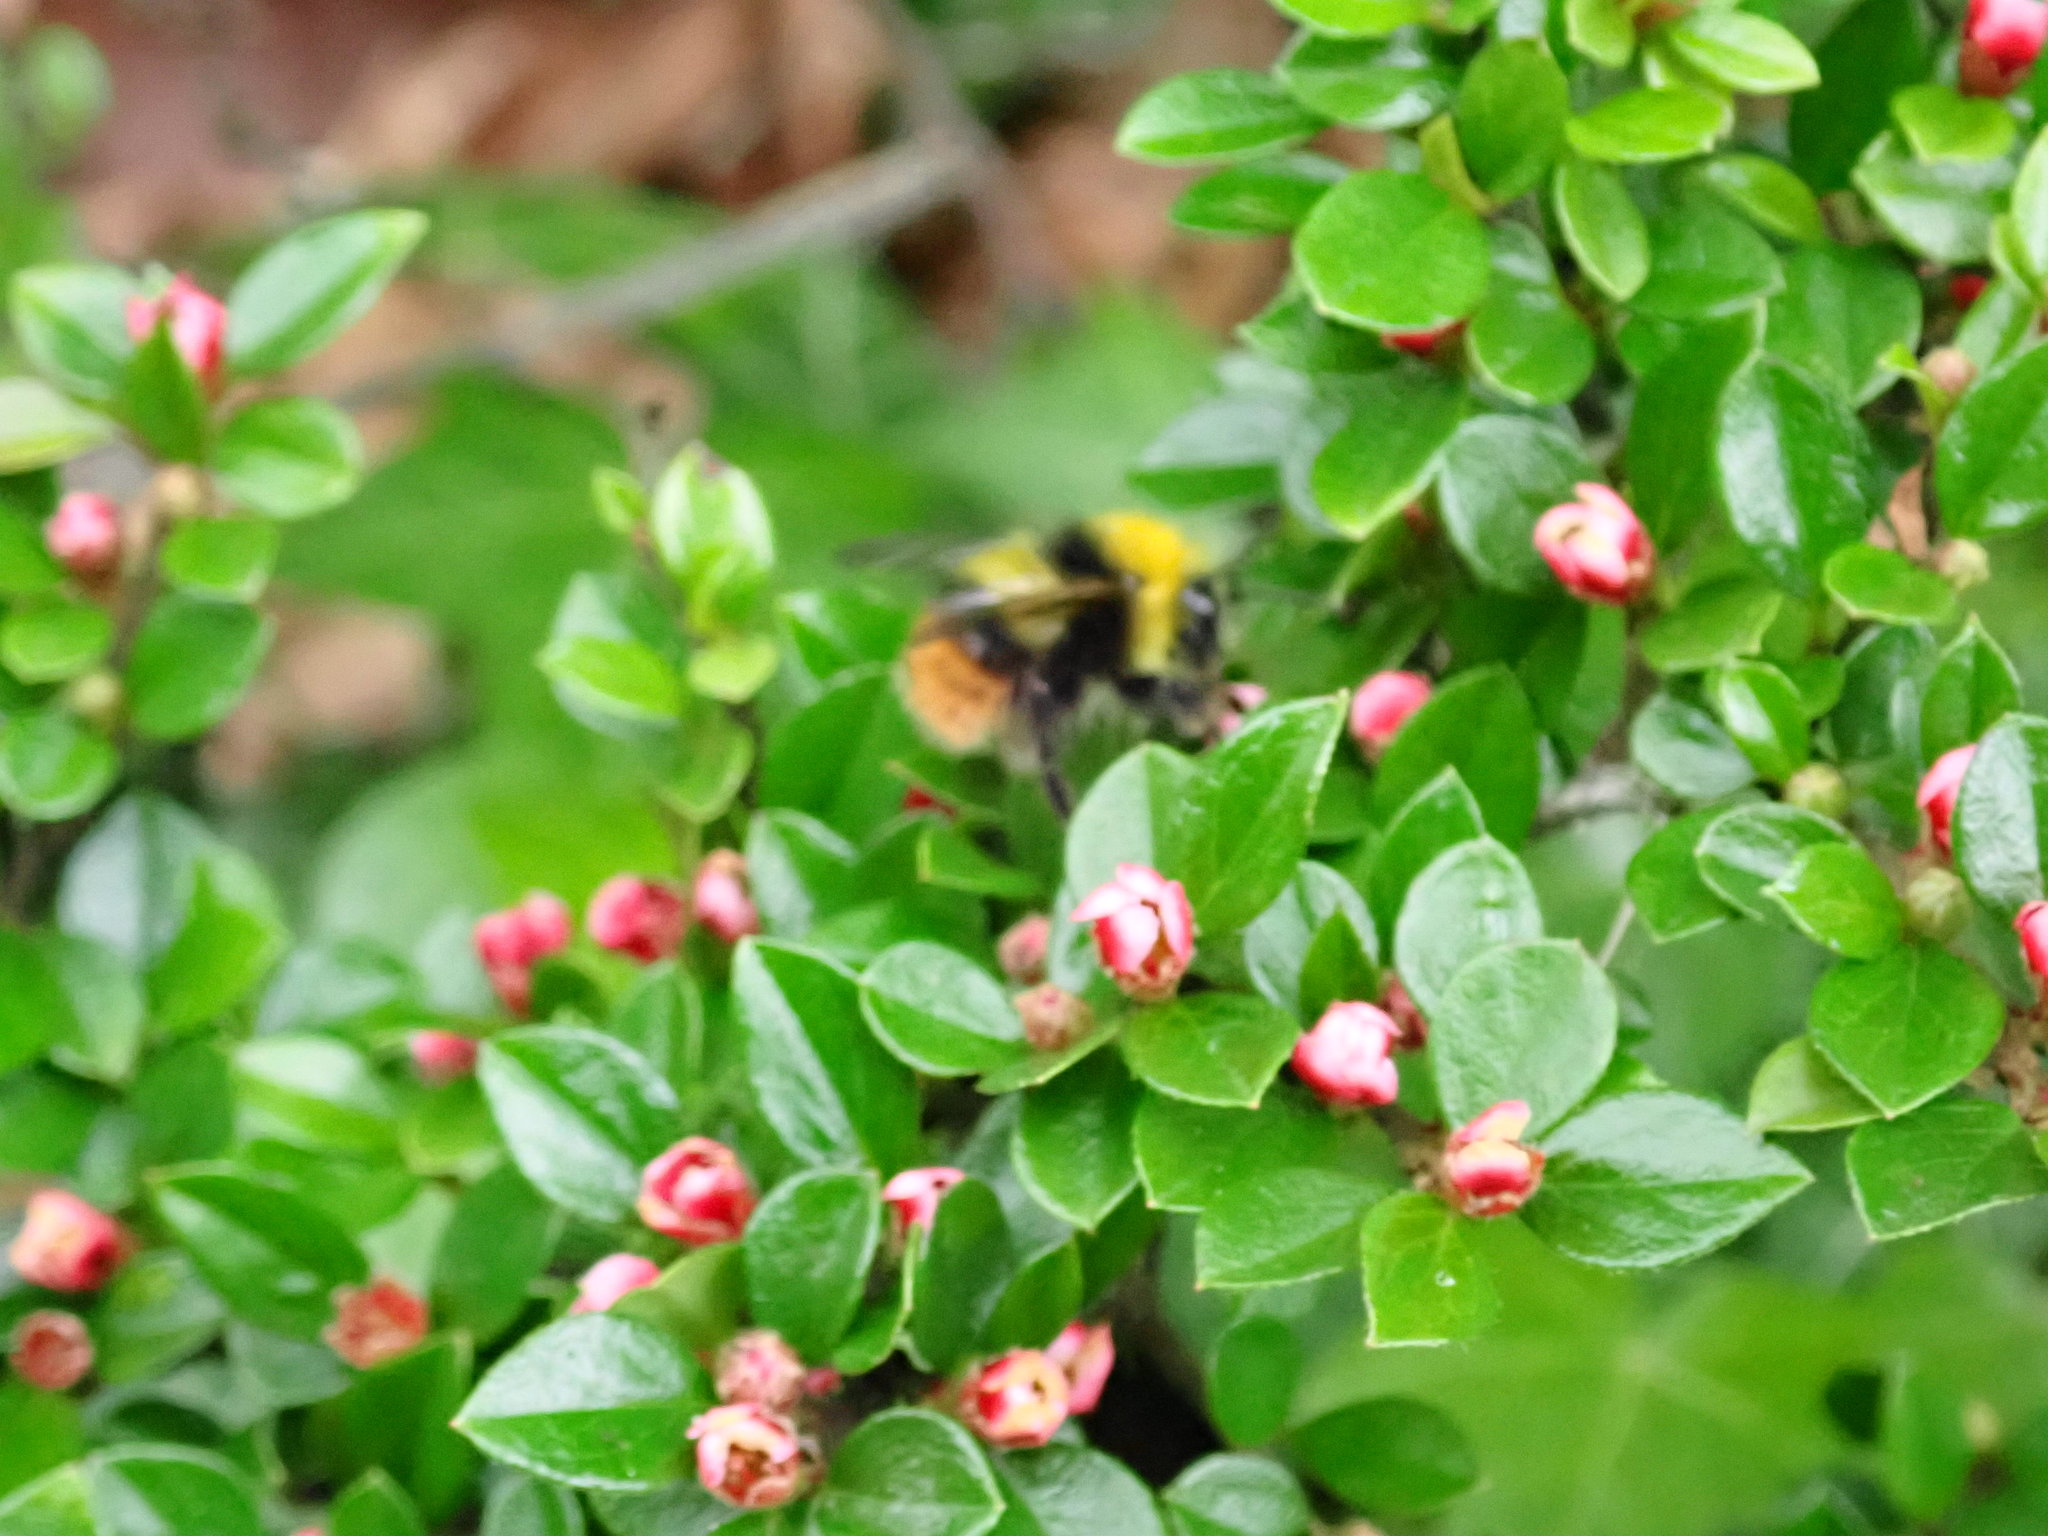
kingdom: Animalia
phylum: Arthropoda
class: Insecta
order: Hymenoptera
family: Apidae
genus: Bombus
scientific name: Bombus pratorum
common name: Early humble-bee
